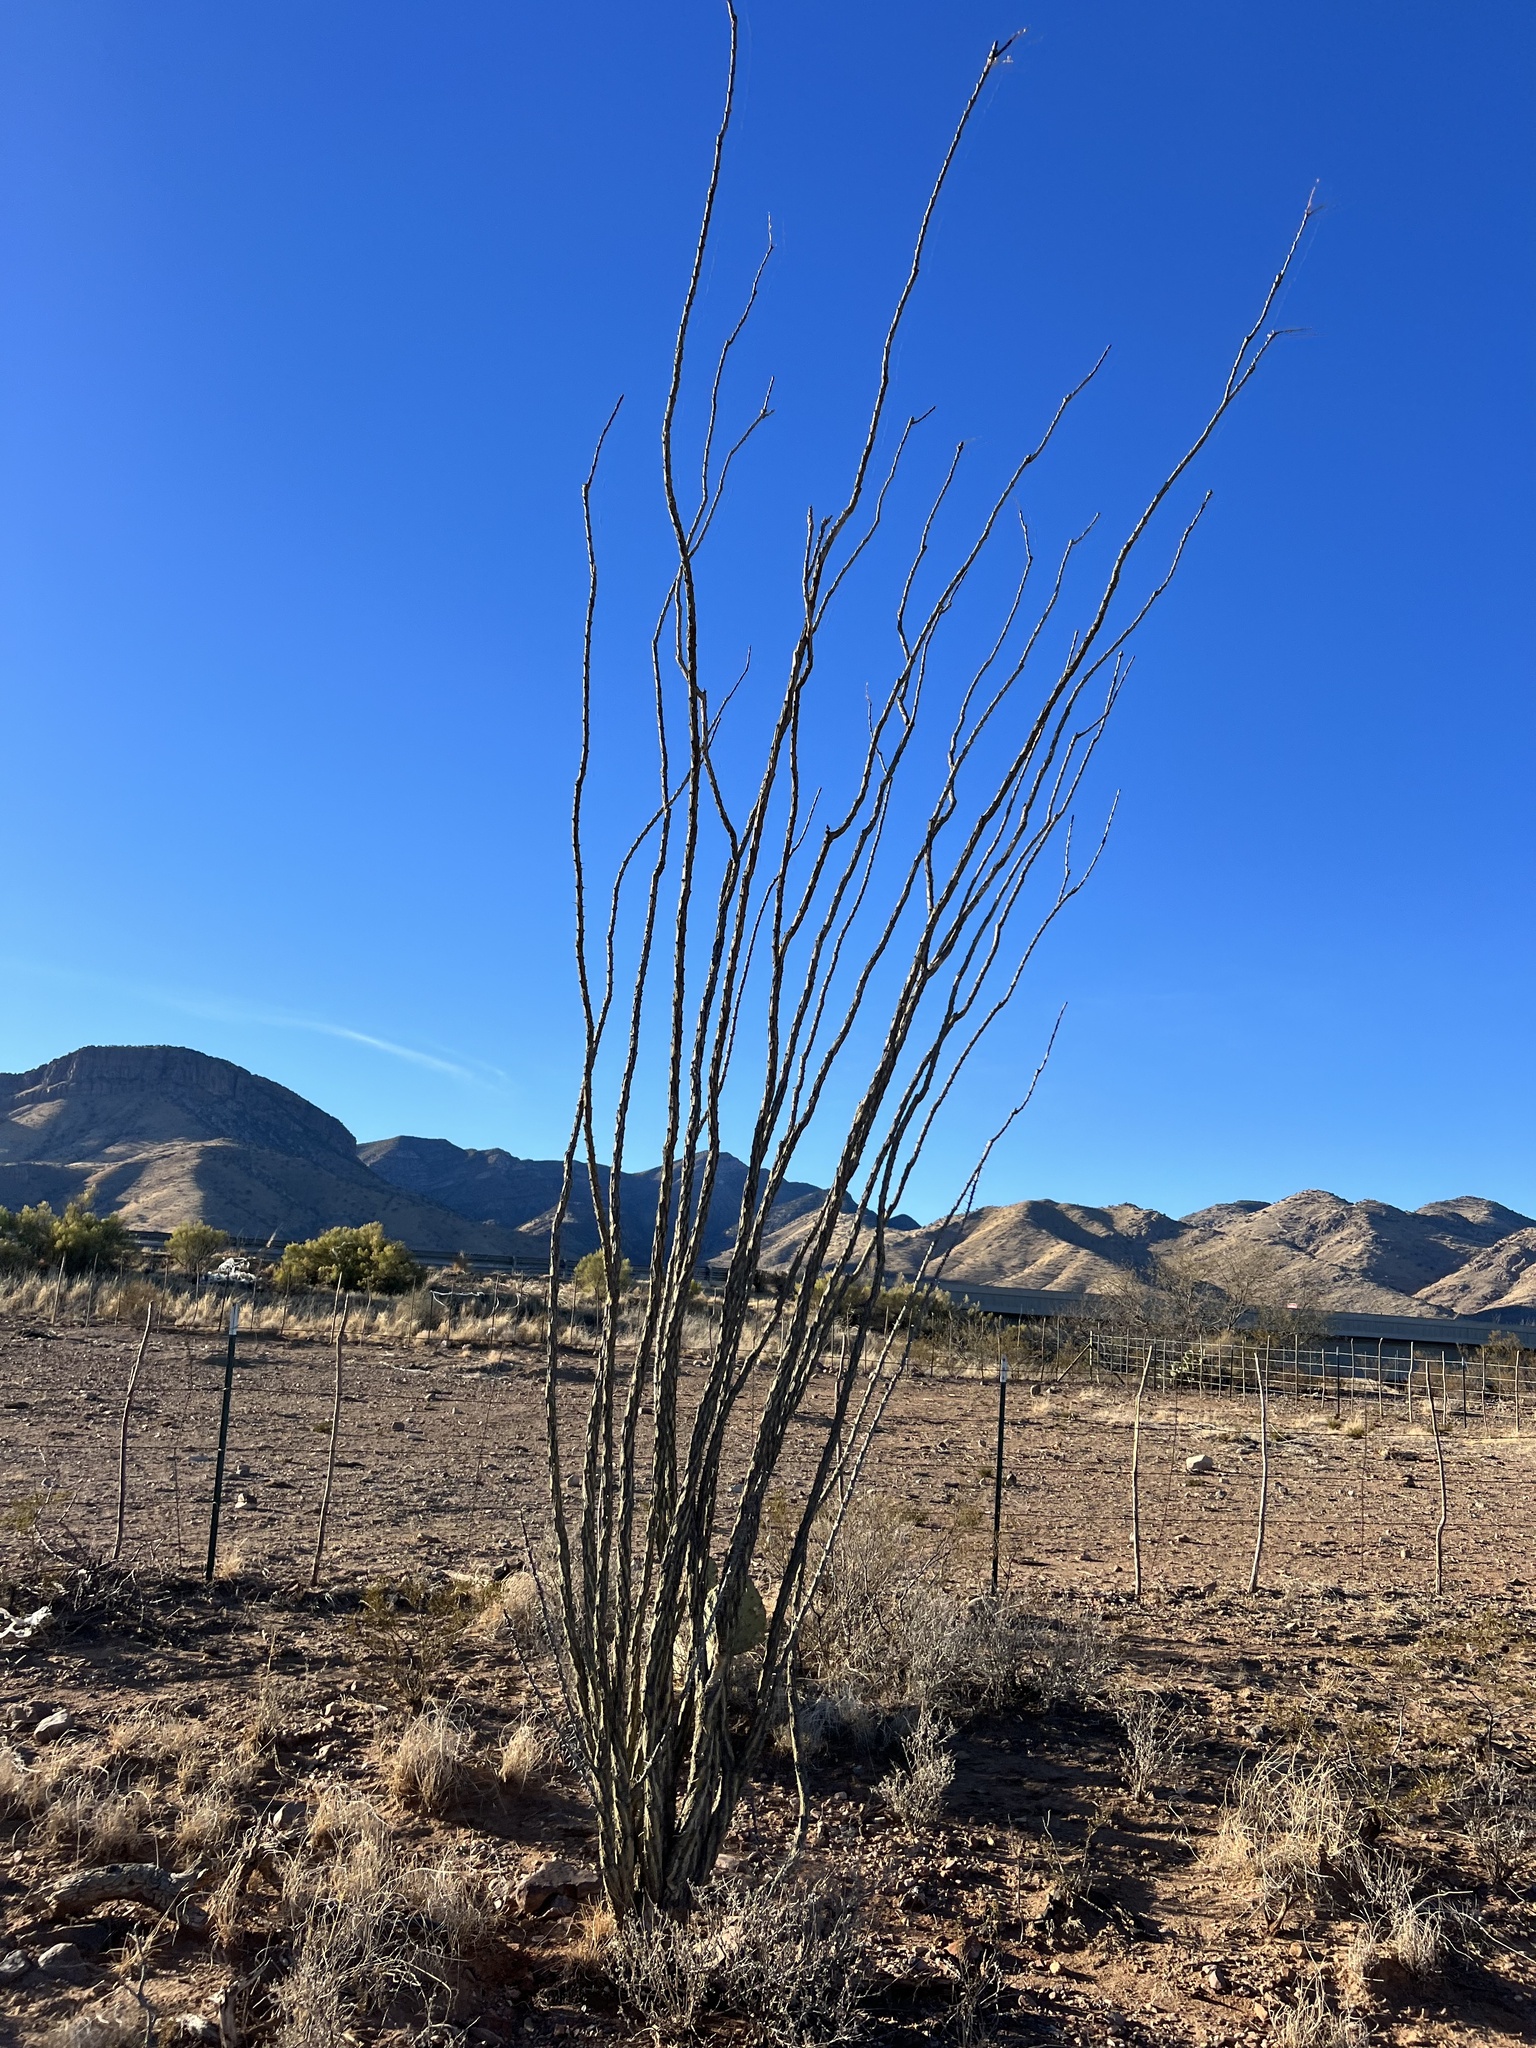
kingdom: Plantae
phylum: Tracheophyta
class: Magnoliopsida
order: Ericales
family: Fouquieriaceae
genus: Fouquieria
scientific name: Fouquieria splendens
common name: Vine-cactus
